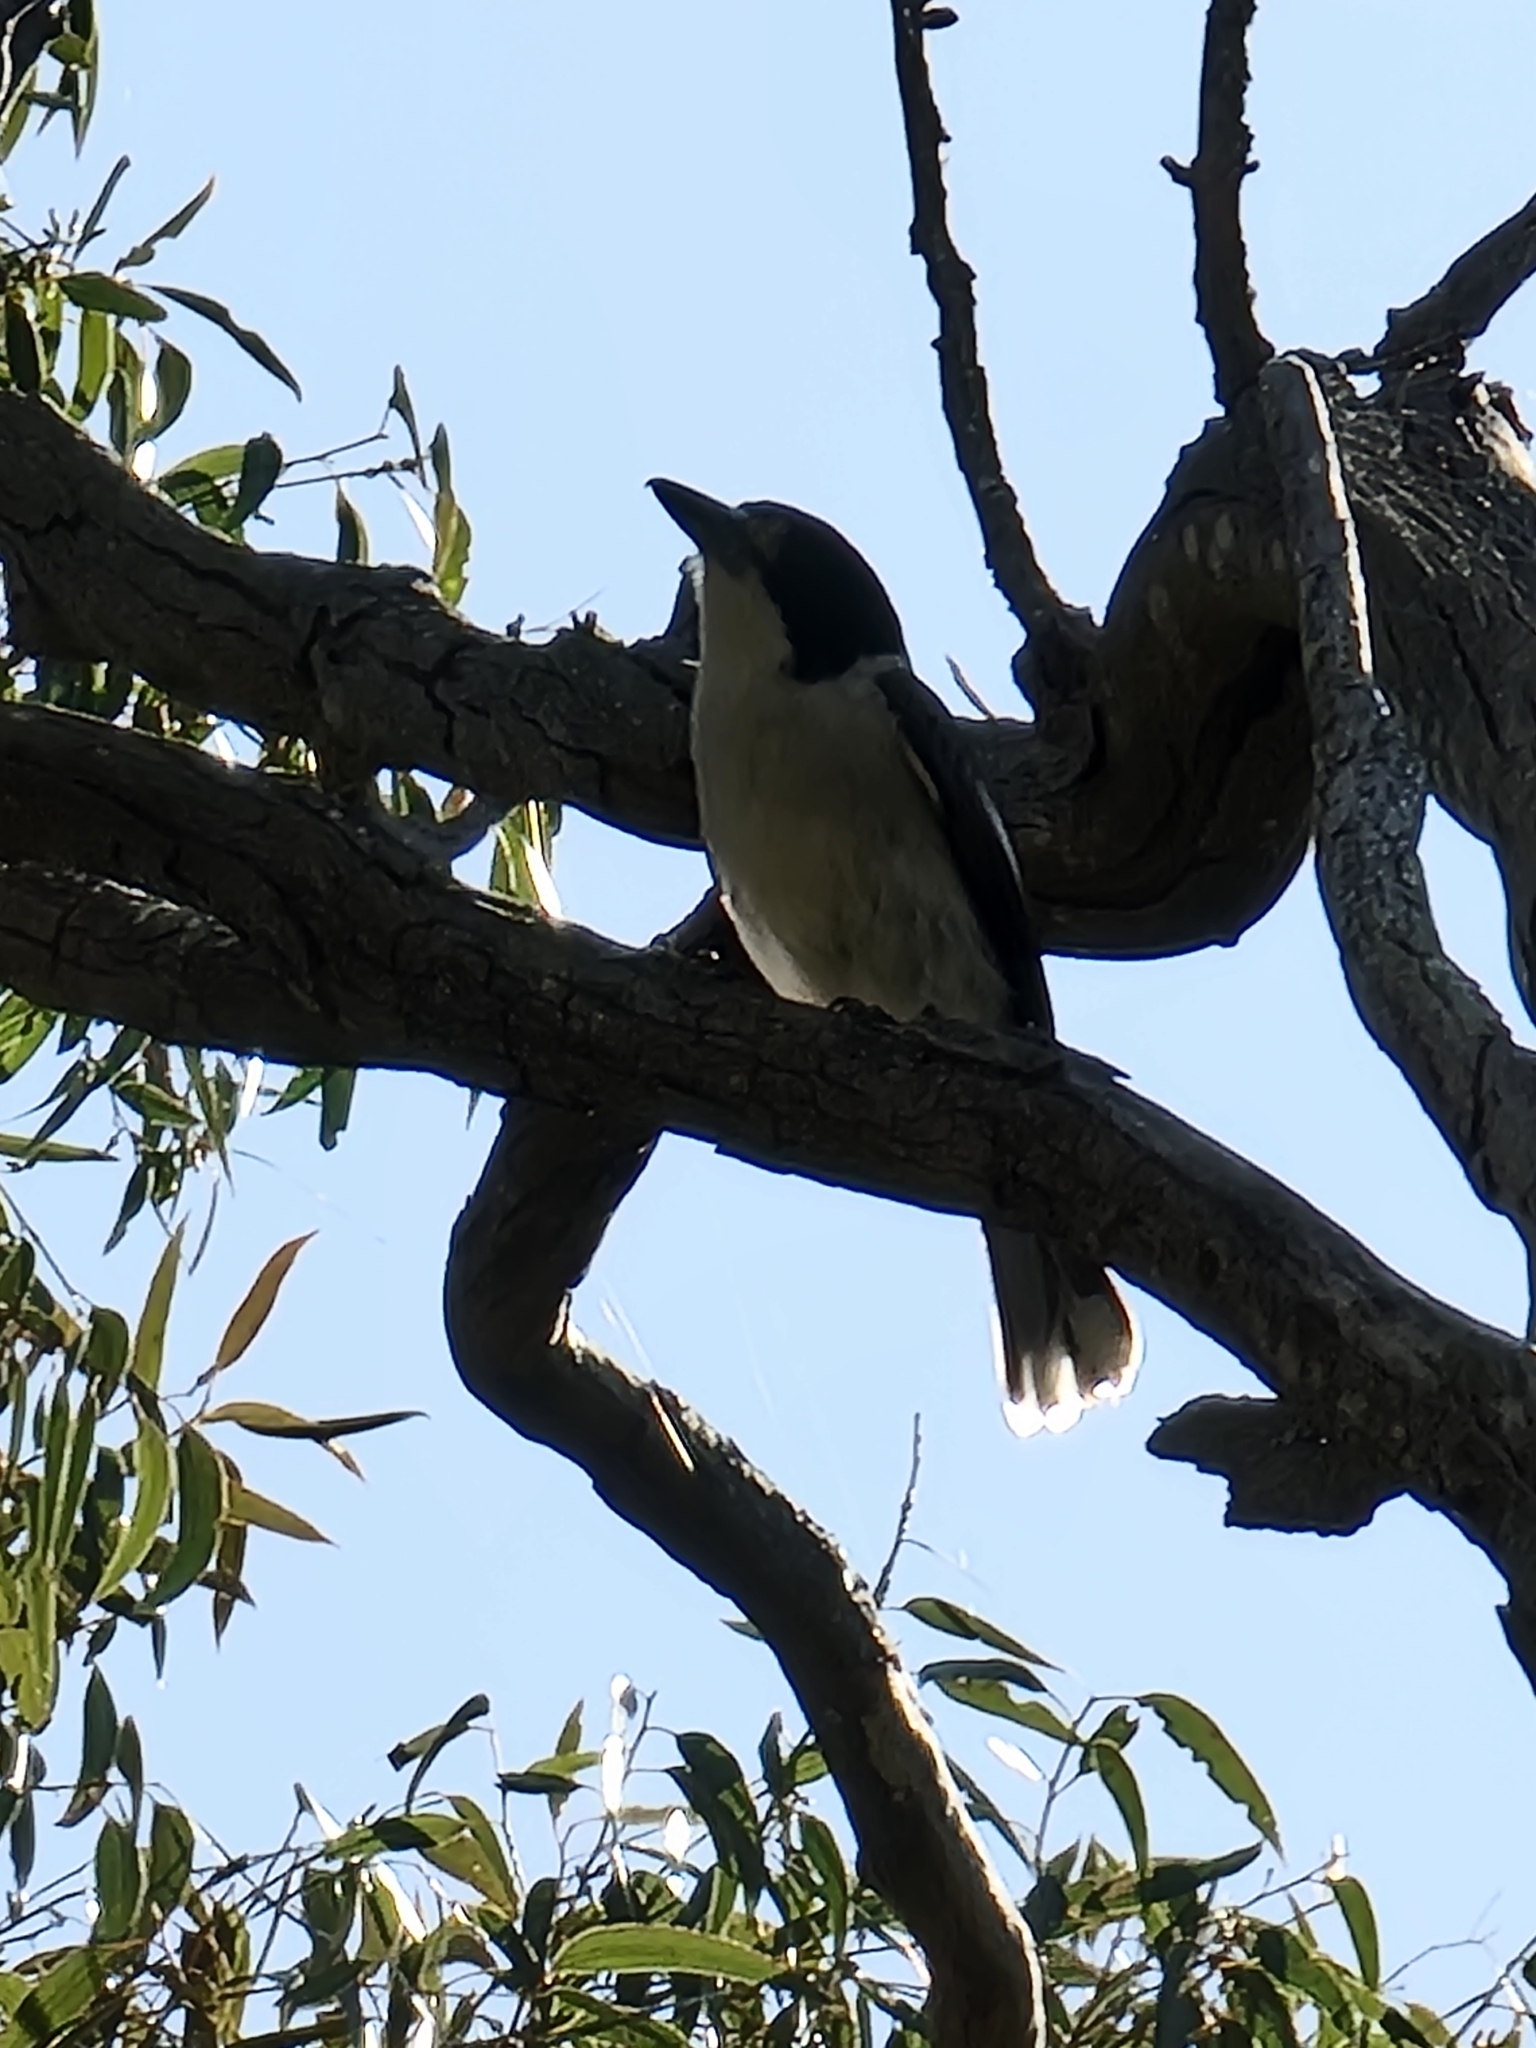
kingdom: Animalia
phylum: Chordata
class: Aves
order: Passeriformes
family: Cracticidae
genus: Cracticus
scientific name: Cracticus torquatus
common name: Grey butcherbird
